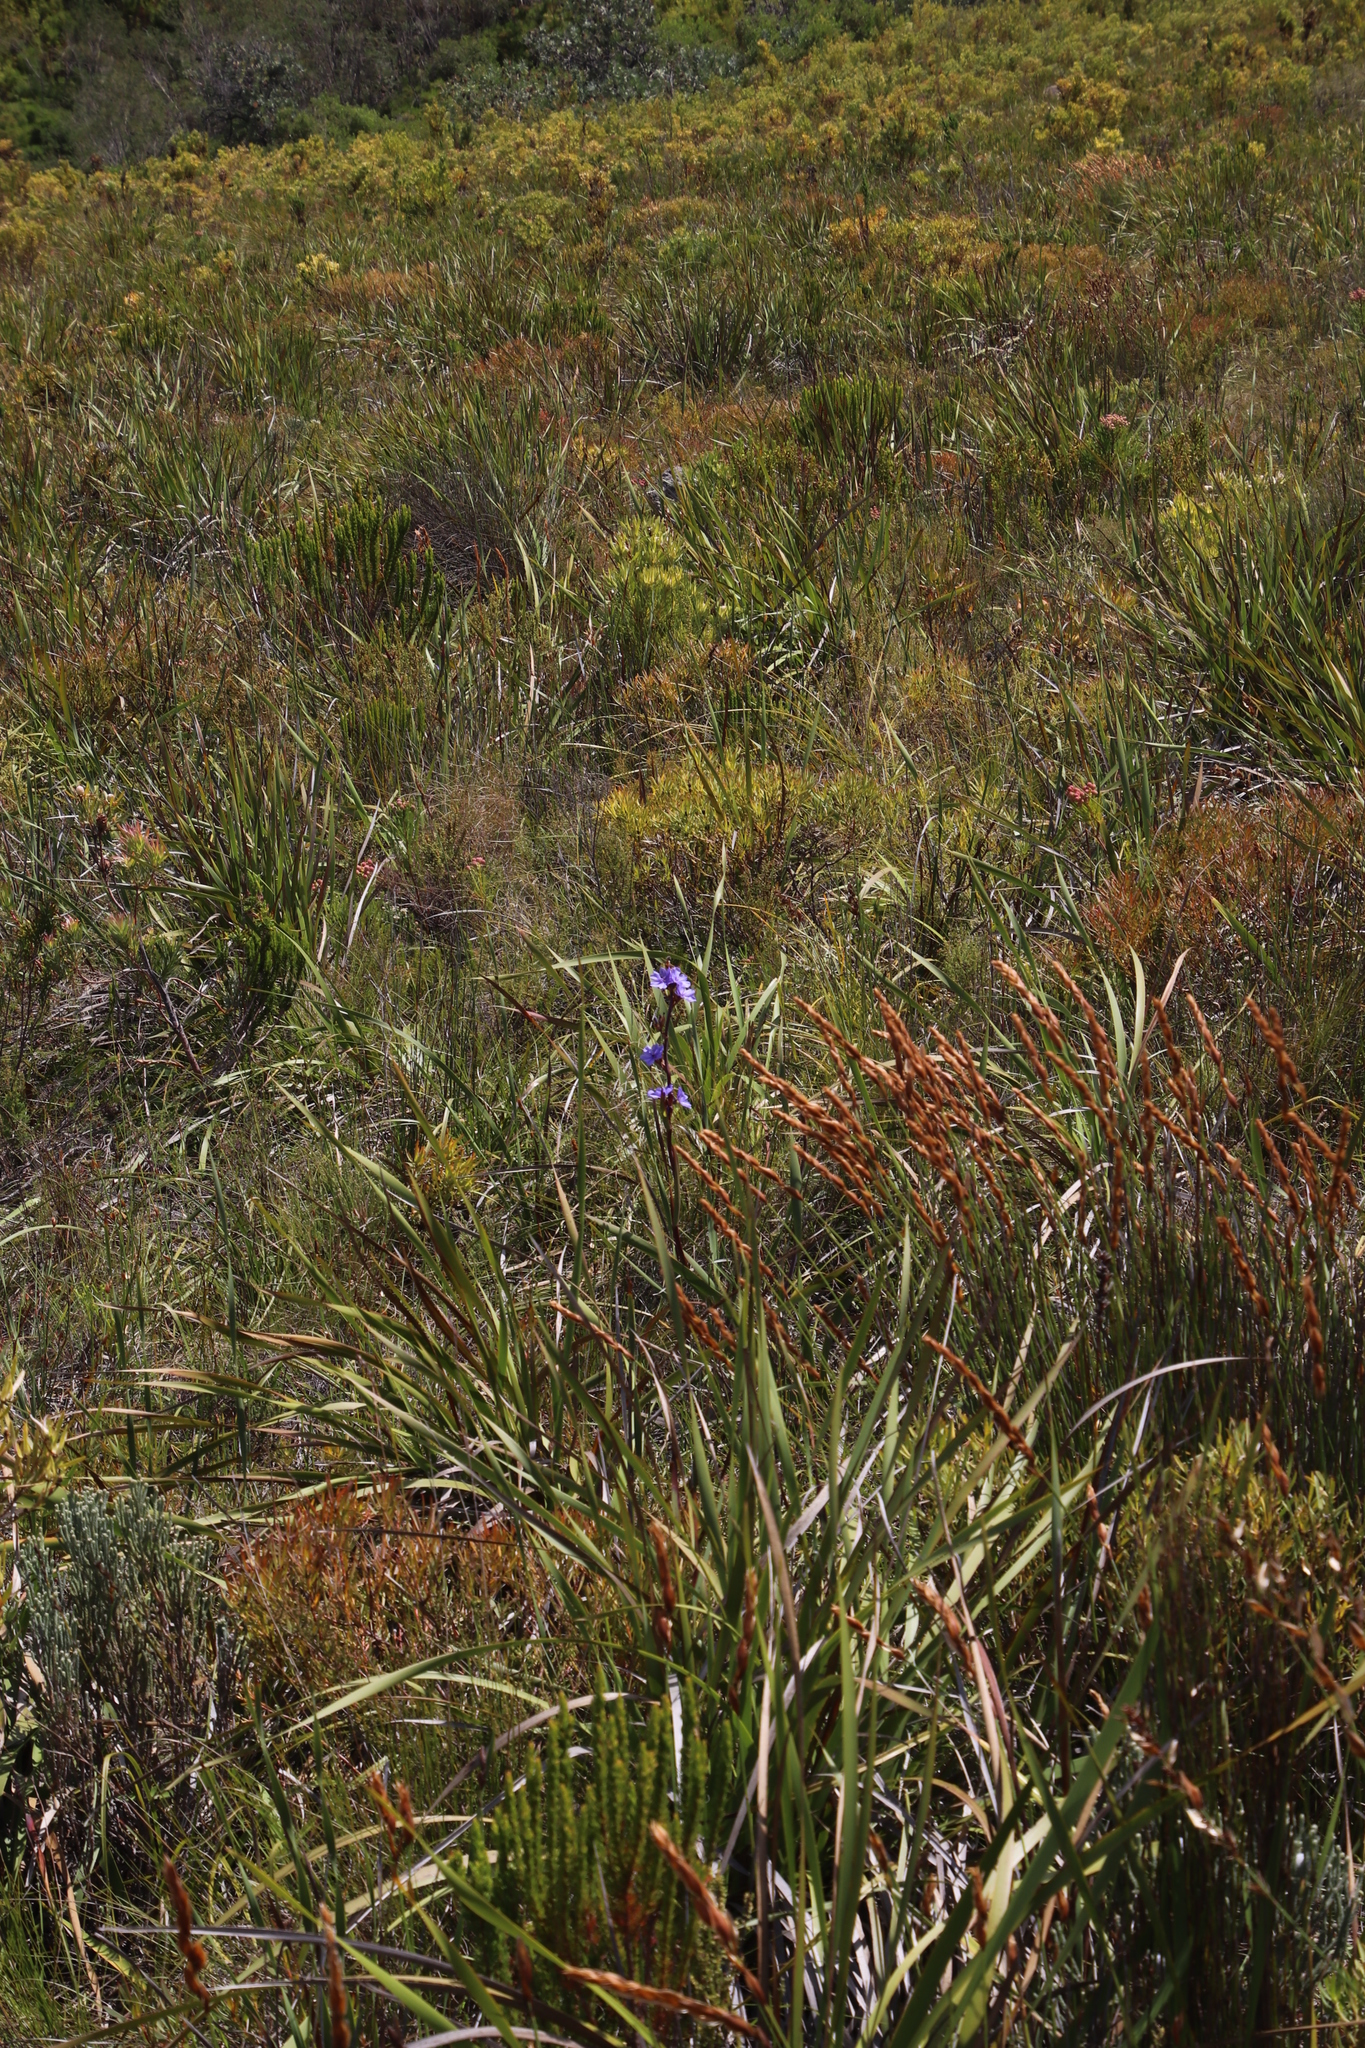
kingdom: Plantae
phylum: Tracheophyta
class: Liliopsida
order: Asparagales
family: Iridaceae
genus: Aristea
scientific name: Aristea bakeri
